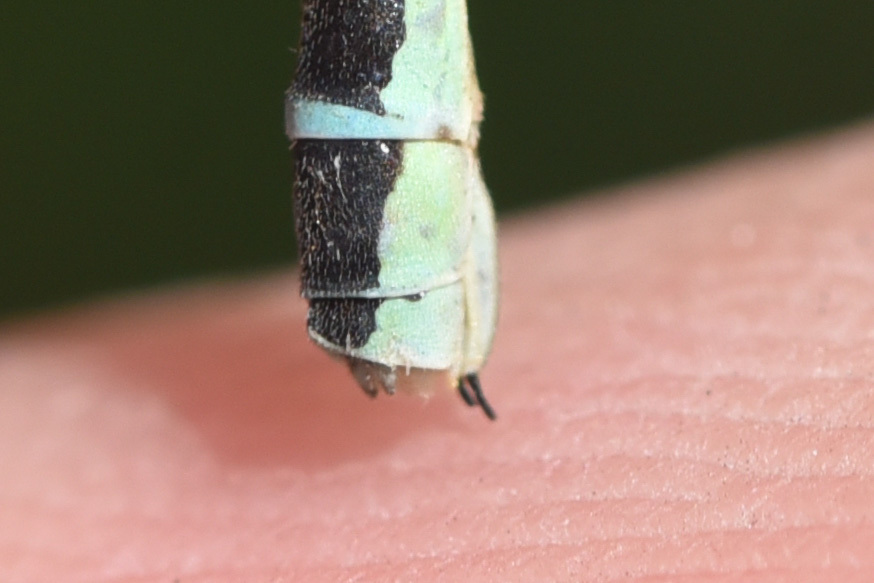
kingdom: Animalia
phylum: Arthropoda
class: Insecta
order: Odonata
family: Coenagrionidae
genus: Coenagrion
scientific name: Coenagrion resolutum
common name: Taiga bluet
